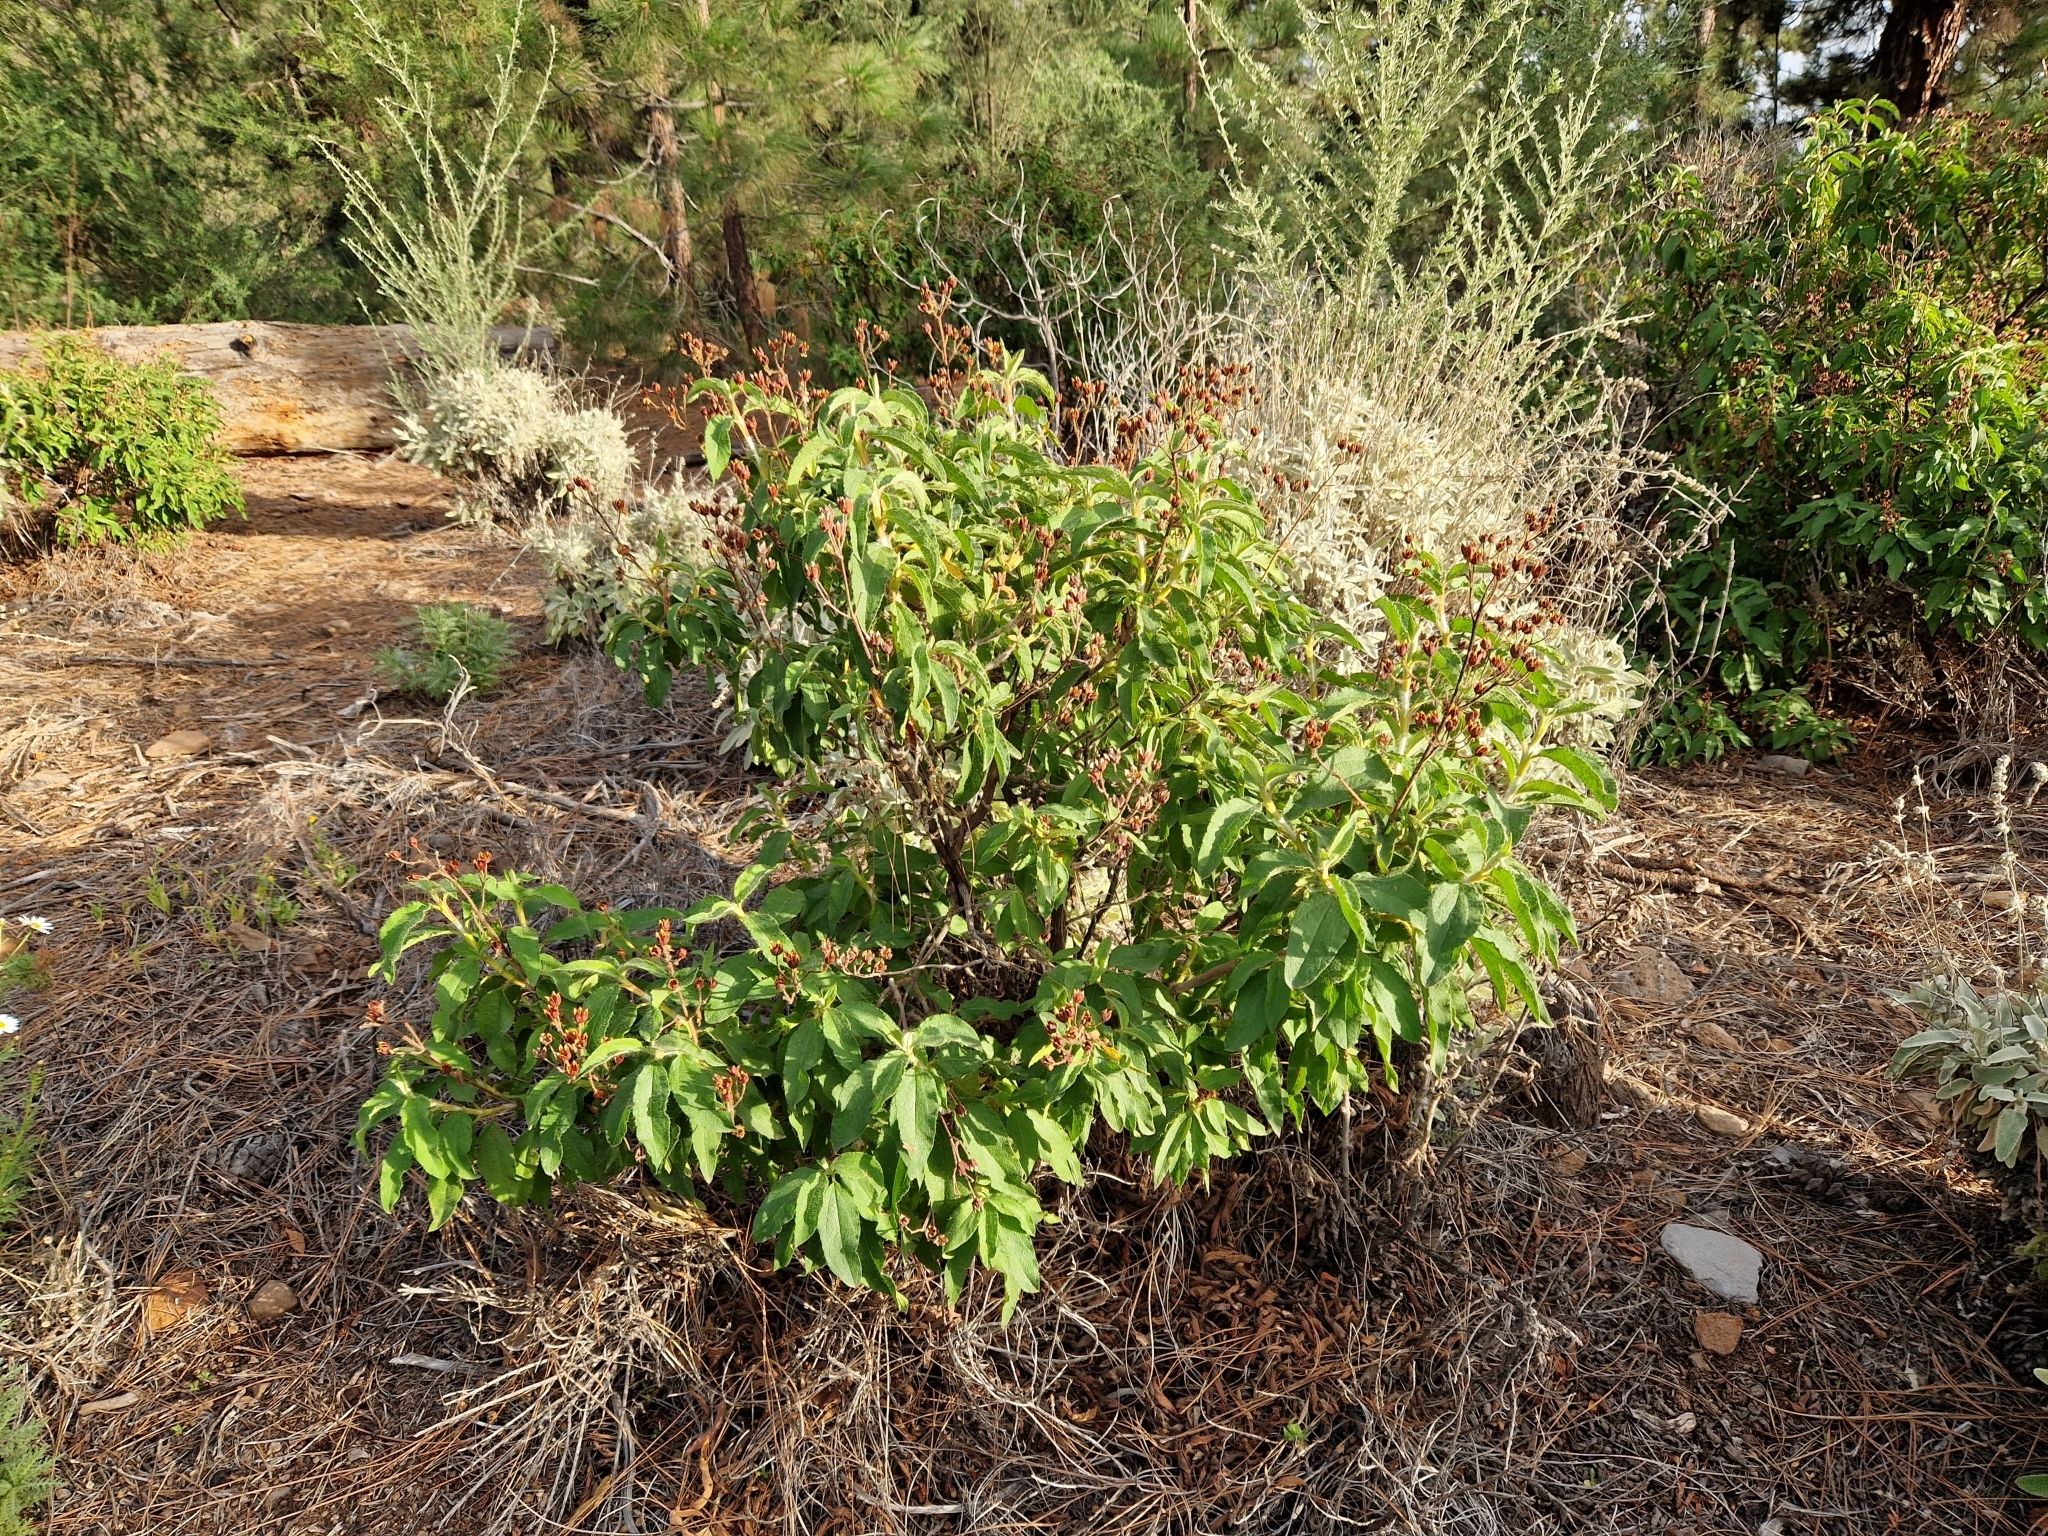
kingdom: Plantae
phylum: Tracheophyta
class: Magnoliopsida
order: Malvales
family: Cistaceae
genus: Cistus
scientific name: Cistus symphytifolius
